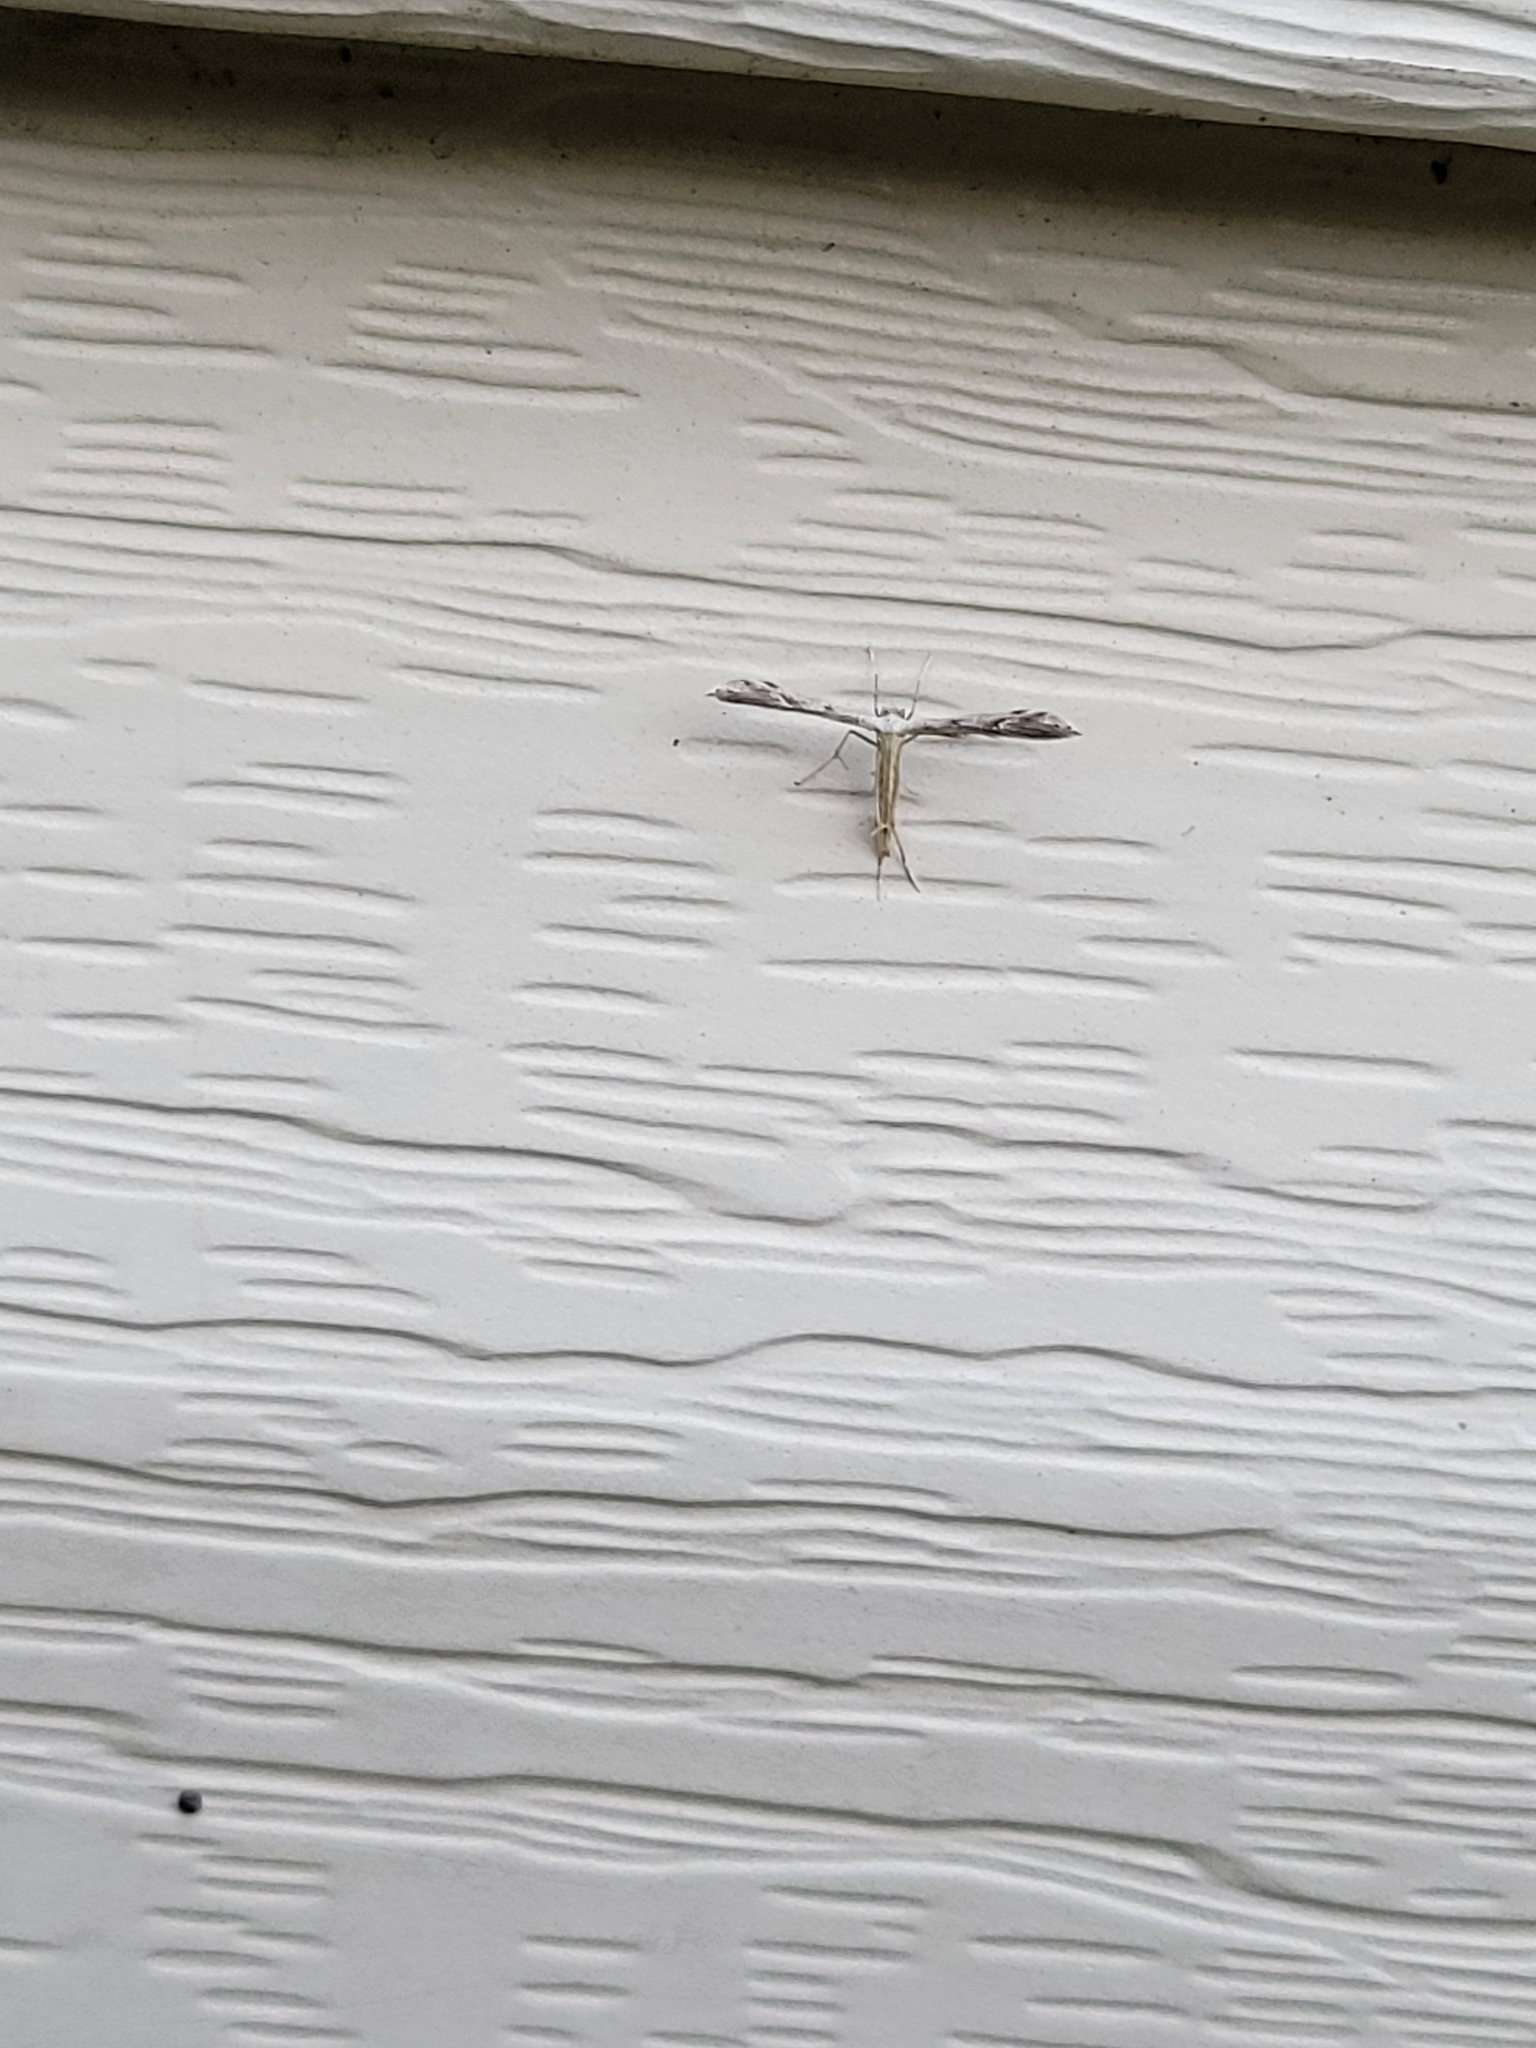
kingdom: Animalia
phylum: Arthropoda
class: Insecta
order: Lepidoptera
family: Pterophoridae
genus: Pselnophorus
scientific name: Pselnophorus belfragei
